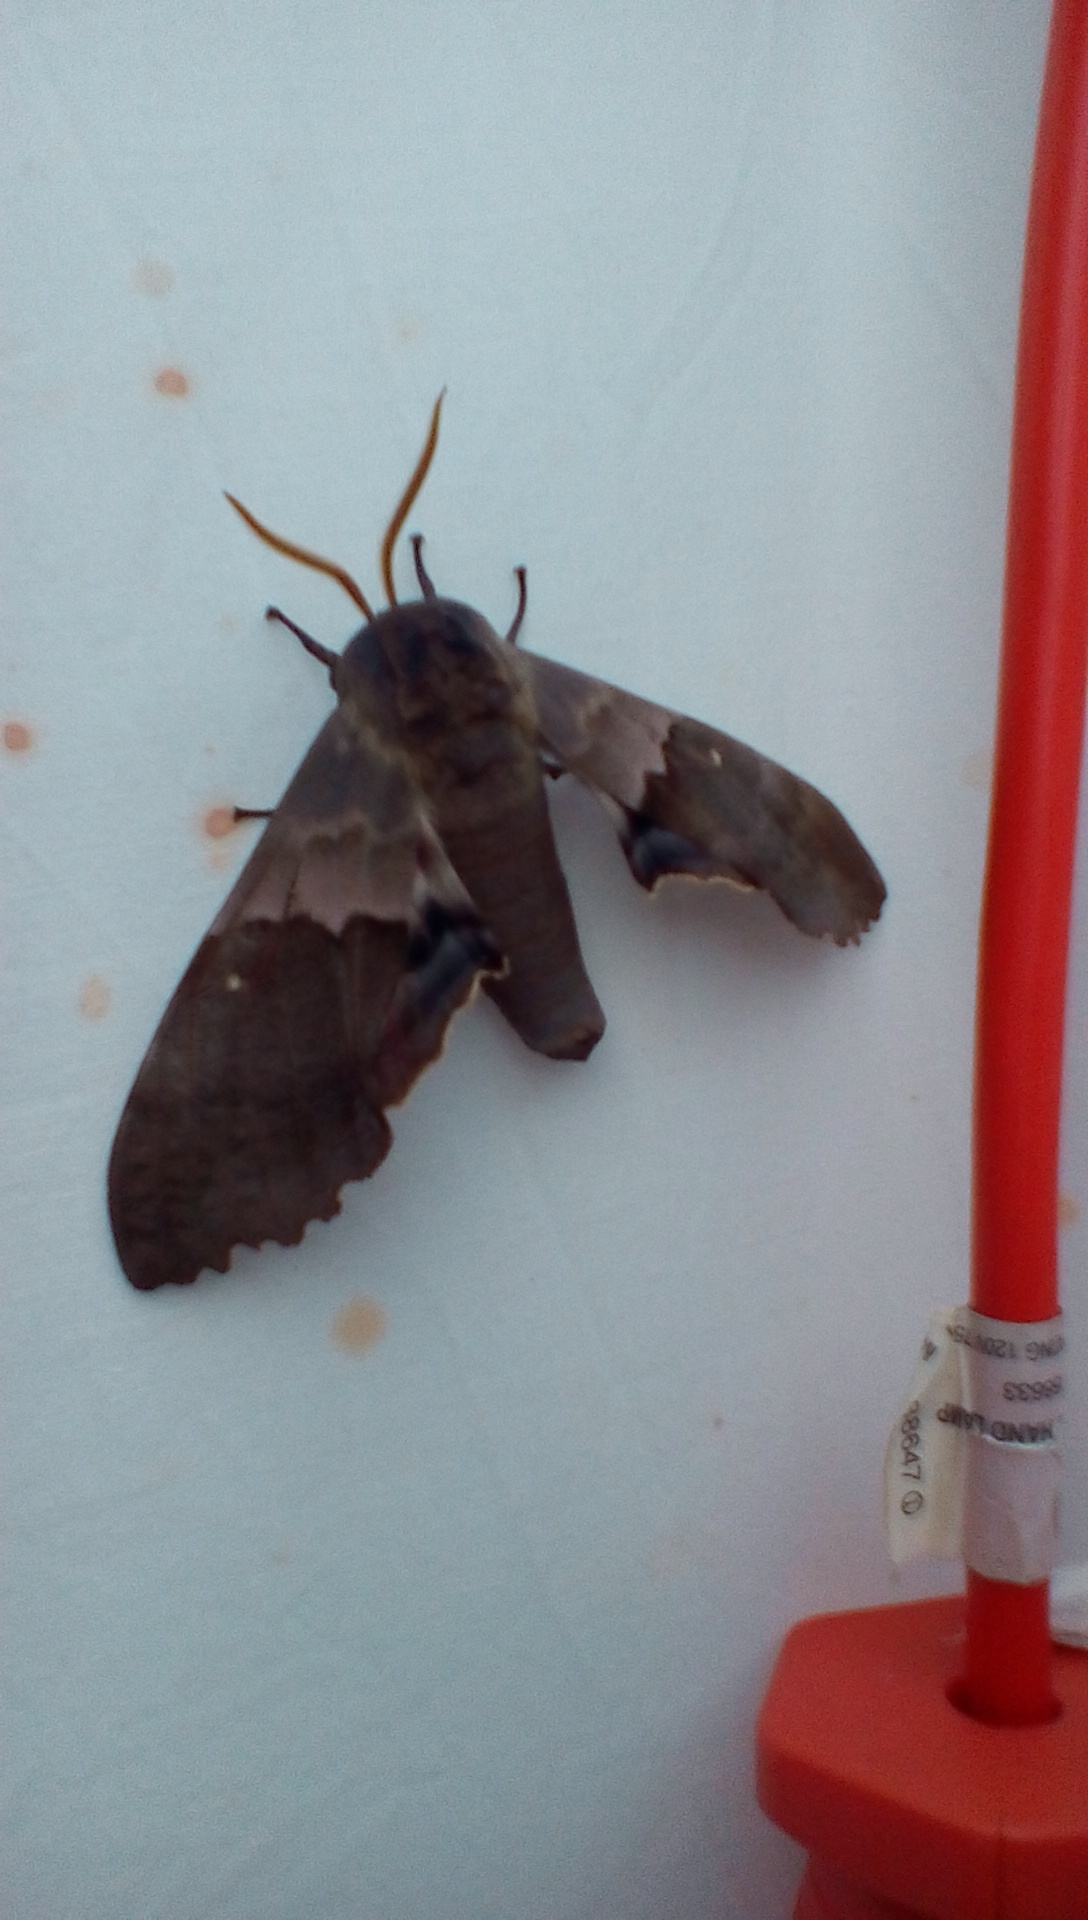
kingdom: Animalia
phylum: Arthropoda
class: Insecta
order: Lepidoptera
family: Sphingidae
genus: Pachysphinx
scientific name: Pachysphinx modesta
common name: Big poplar sphinx
